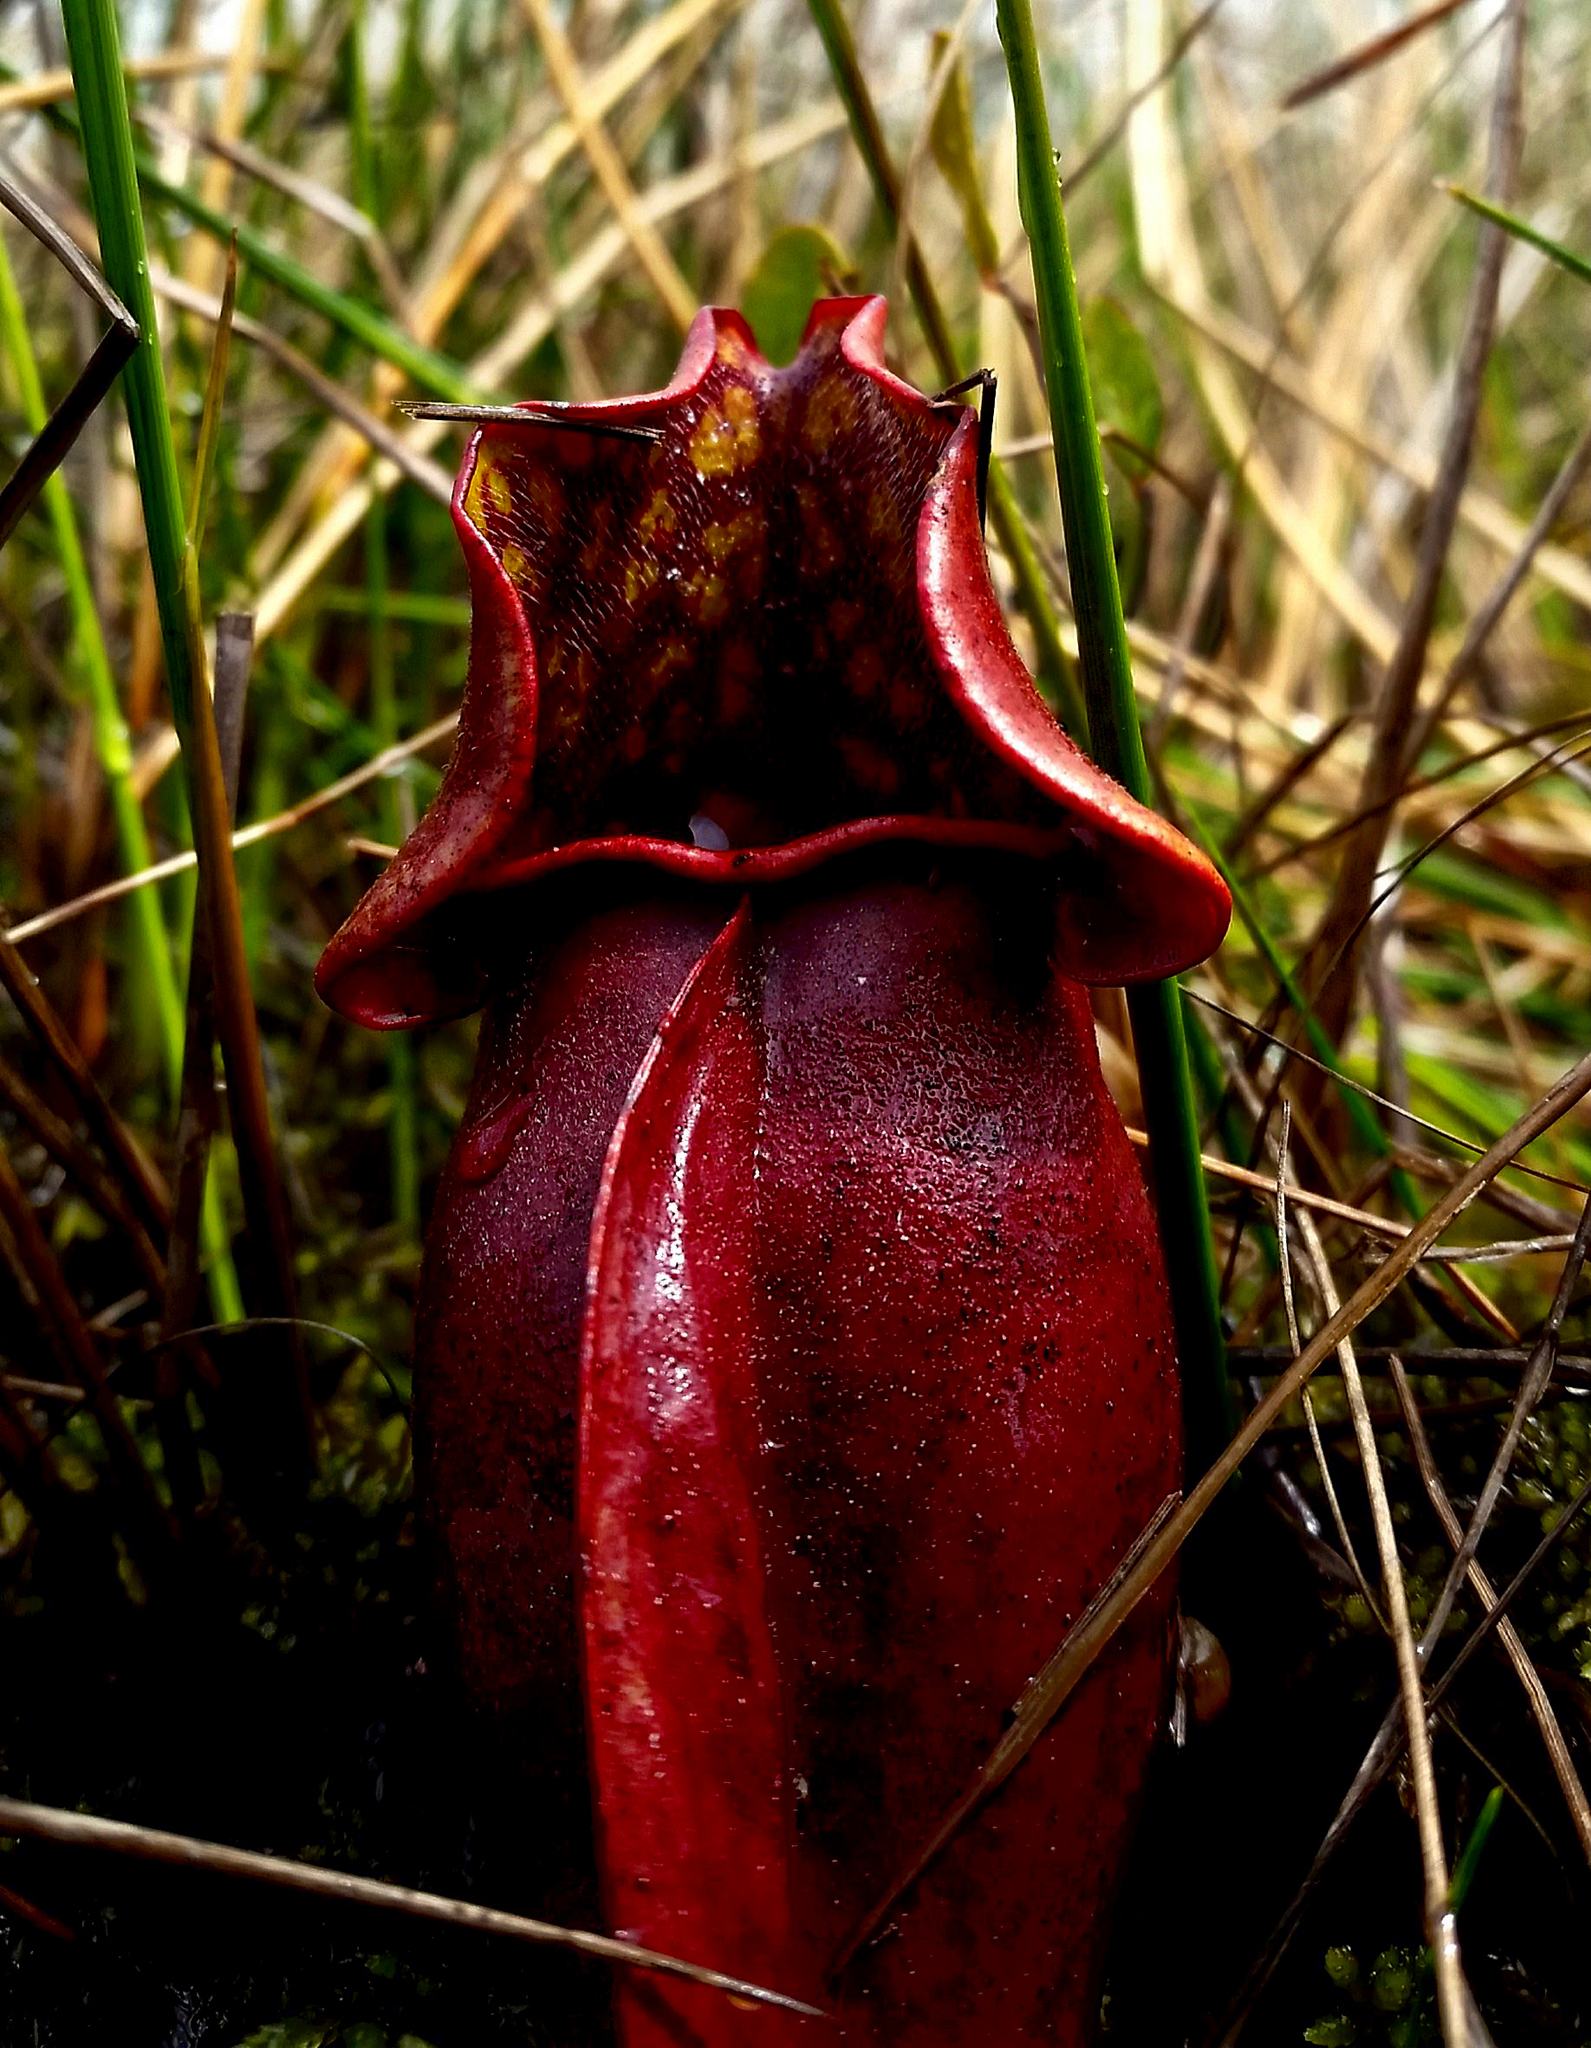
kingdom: Plantae
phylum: Tracheophyta
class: Magnoliopsida
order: Ericales
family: Sarraceniaceae
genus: Sarracenia
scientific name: Sarracenia purpurea
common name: Pitcherplant
